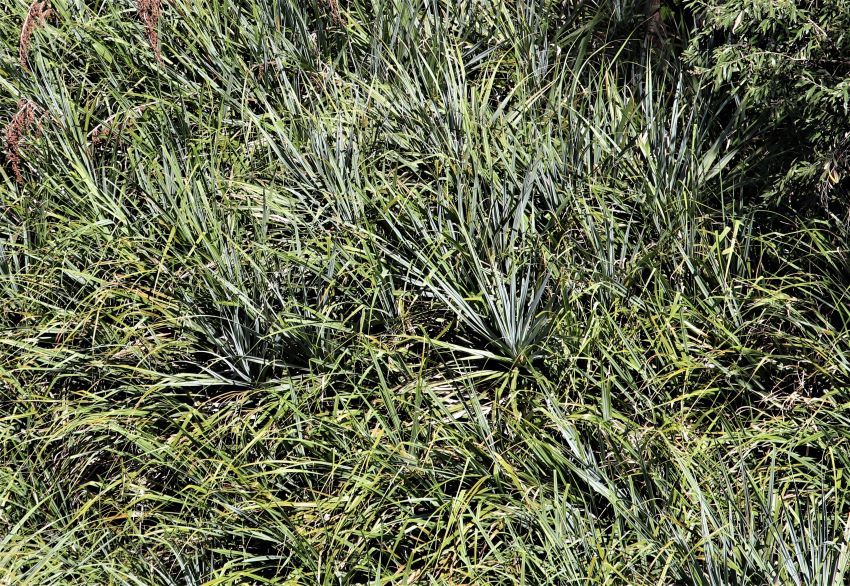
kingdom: Plantae
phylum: Tracheophyta
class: Liliopsida
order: Poales
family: Thurniaceae
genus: Prionium
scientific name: Prionium serratum
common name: Palmiet
